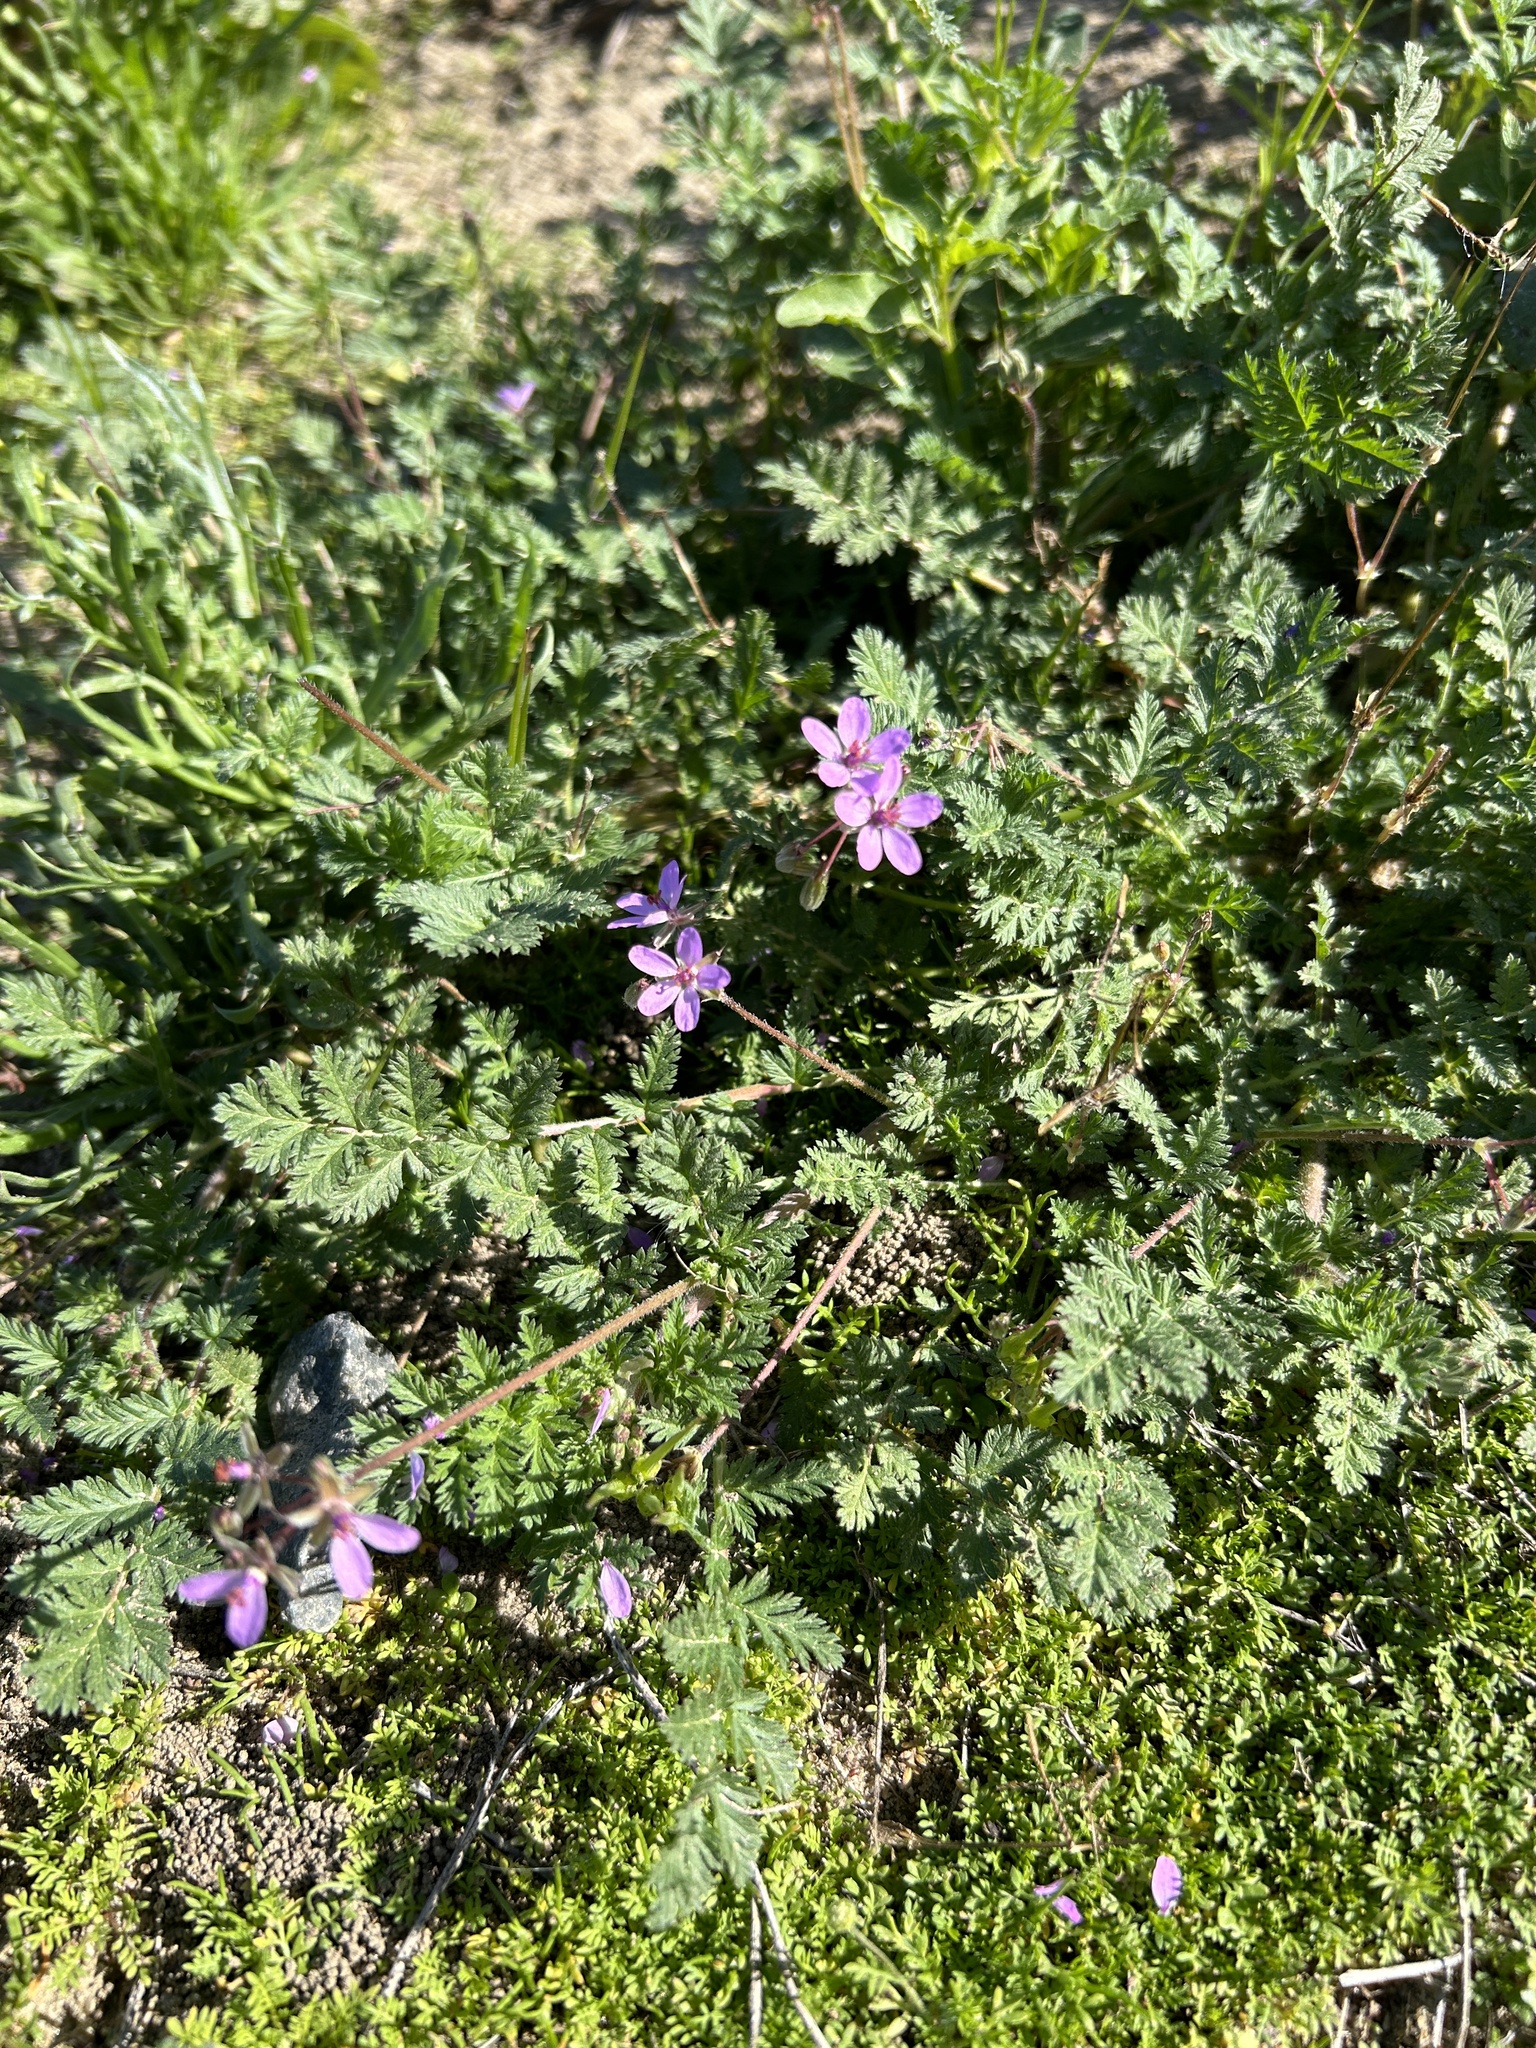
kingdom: Plantae
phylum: Tracheophyta
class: Magnoliopsida
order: Geraniales
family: Geraniaceae
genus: Erodium
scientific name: Erodium cicutarium
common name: Common stork's-bill
